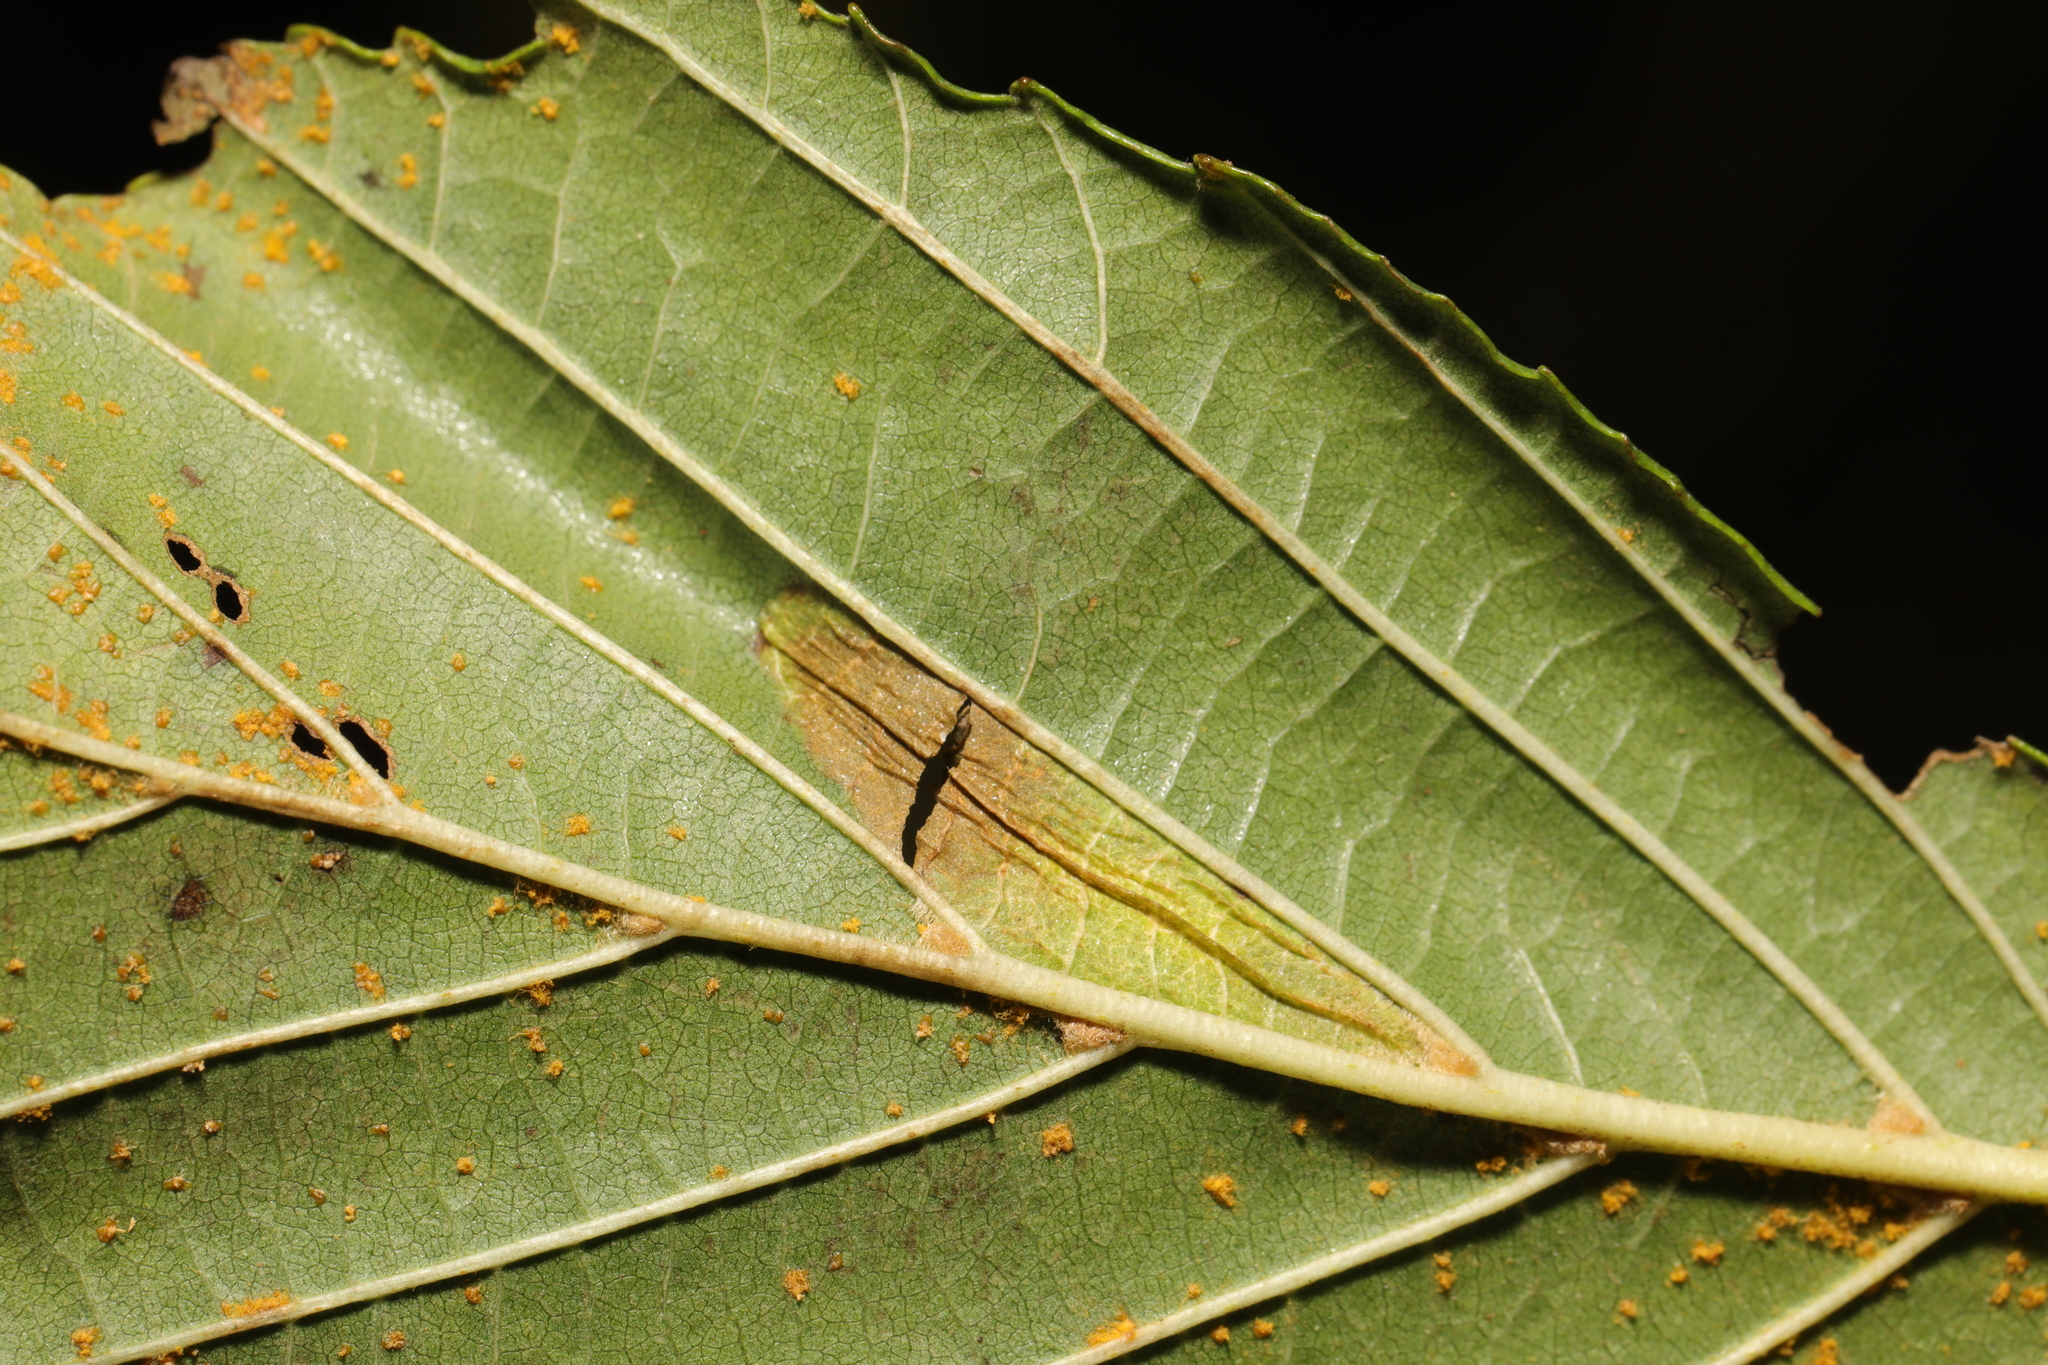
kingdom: Fungi
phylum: Basidiomycota
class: Pucciniomycetes
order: Pucciniales
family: Pucciniastraceae
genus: Melampsoridium
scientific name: Melampsoridium
